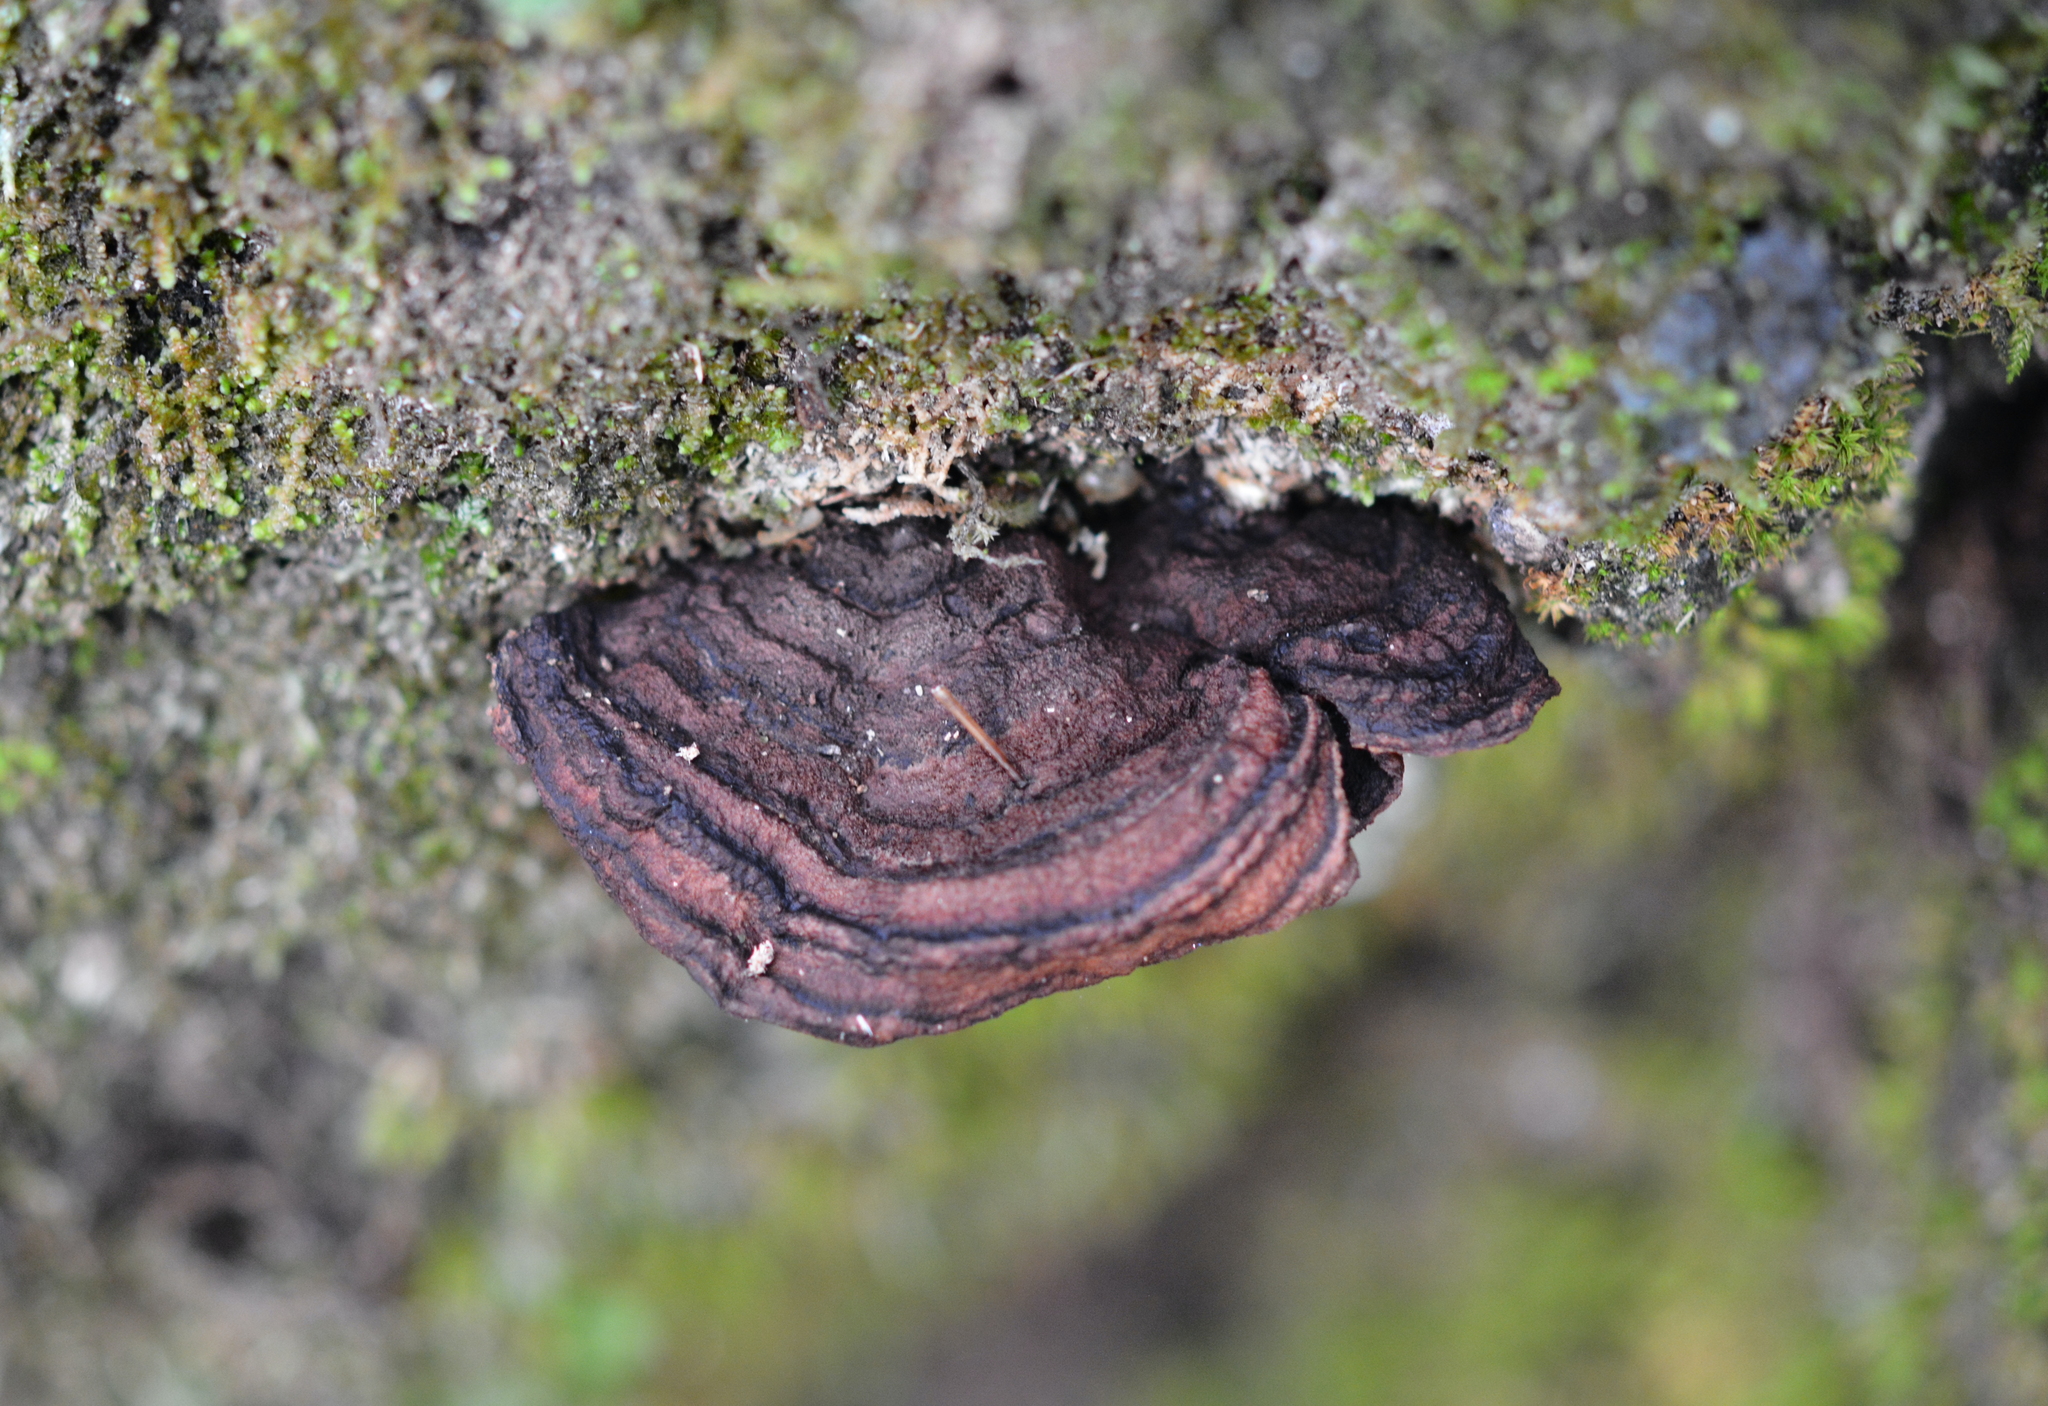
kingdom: Fungi
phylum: Basidiomycota
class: Agaricomycetes
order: Corticiales
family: Punctulariaceae
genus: Punctularia
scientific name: Punctularia strigosozonata
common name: White-rot fungus
